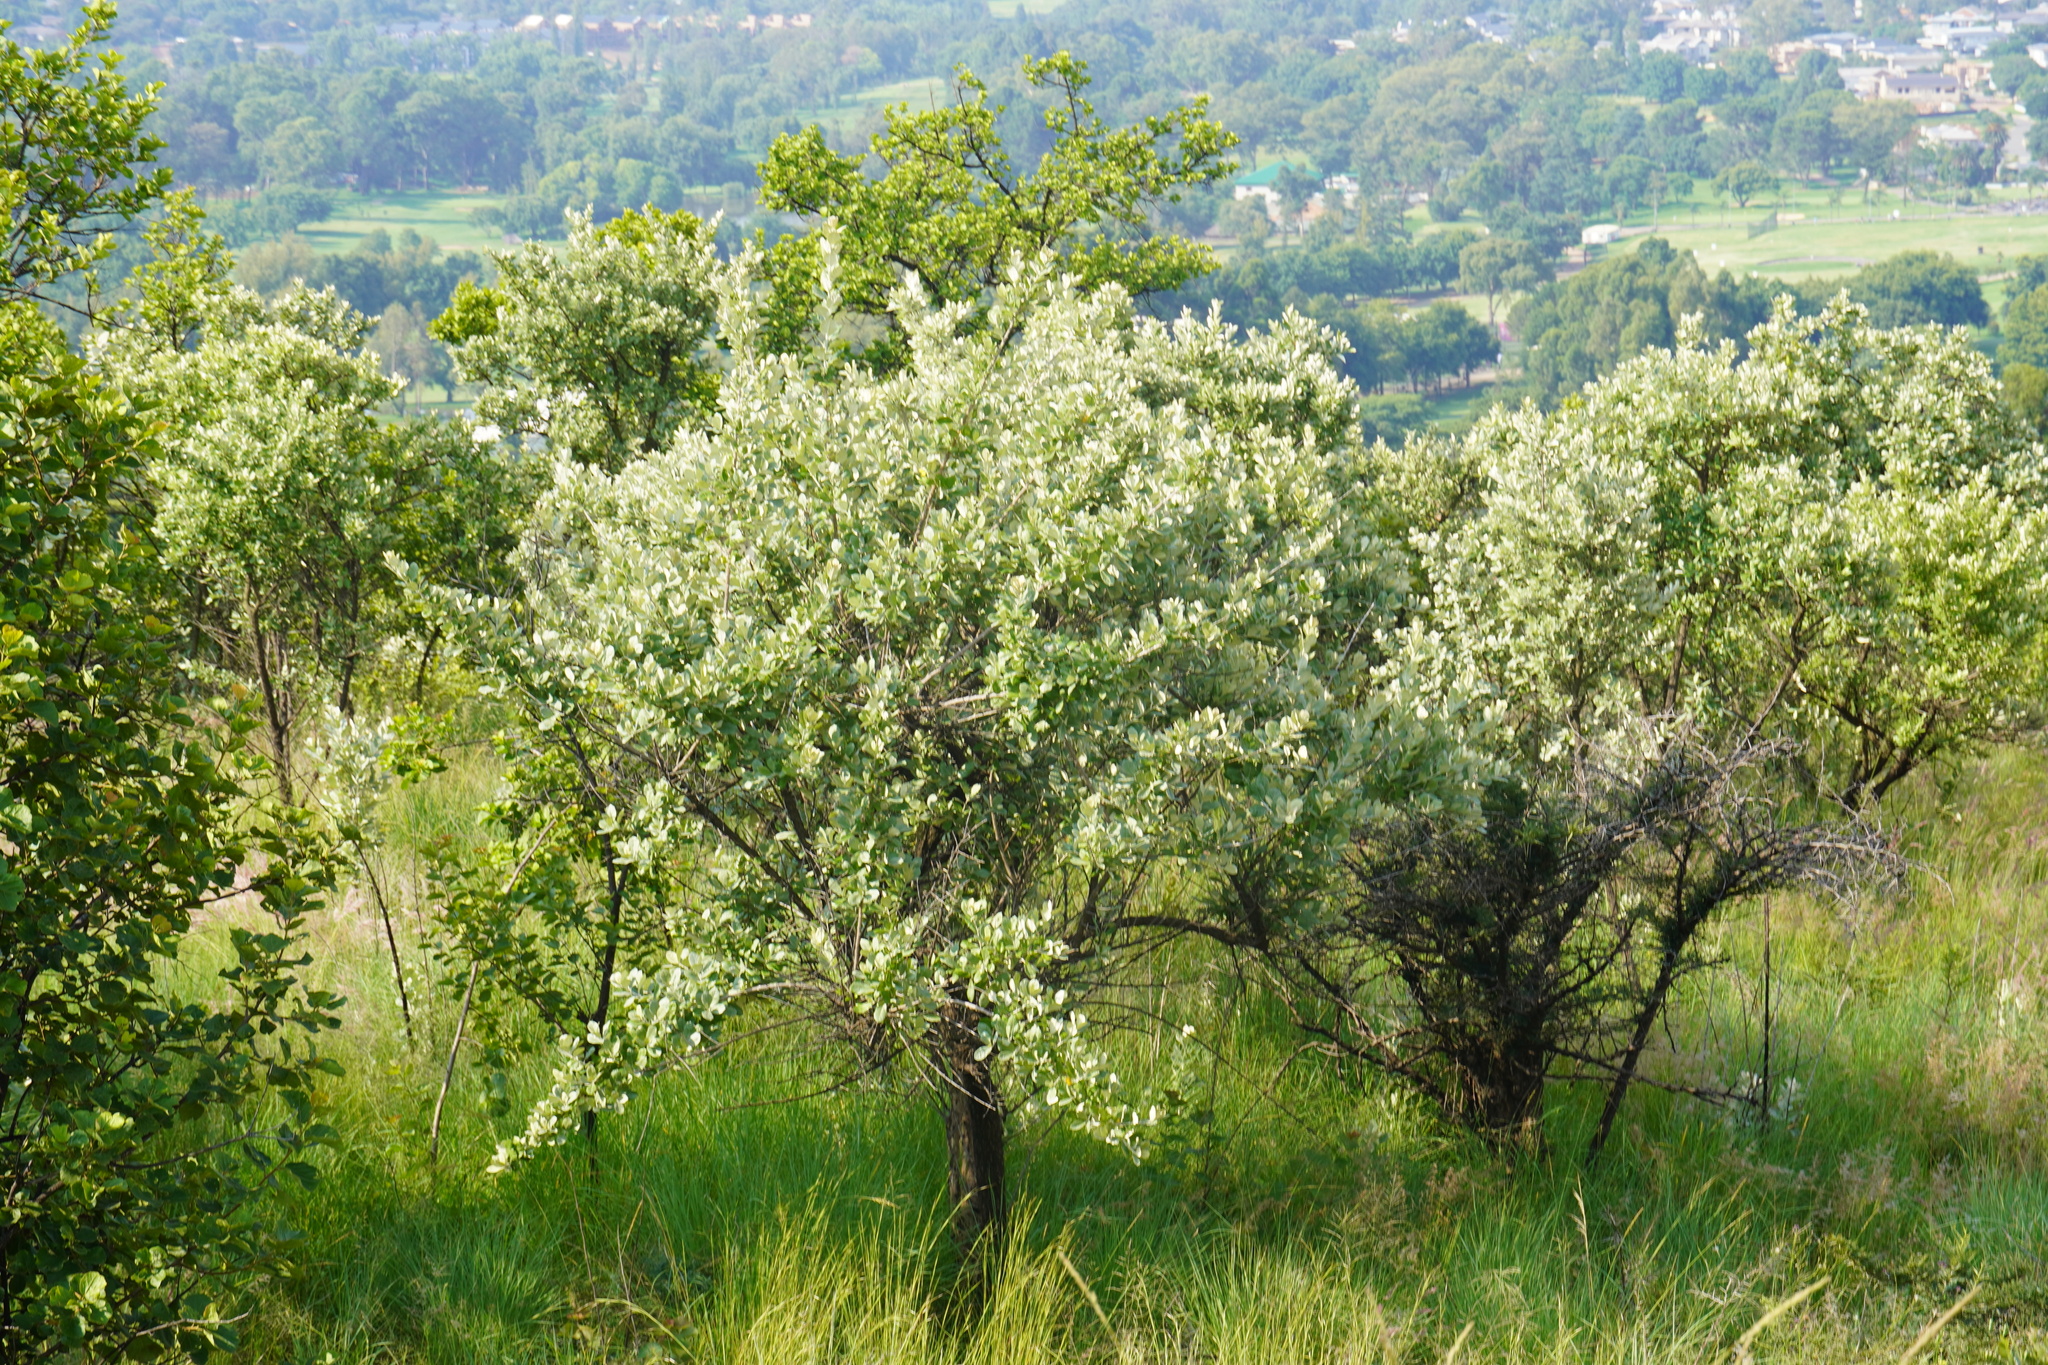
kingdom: Plantae
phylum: Tracheophyta
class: Magnoliopsida
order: Asterales
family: Asteraceae
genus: Brachylaena
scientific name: Brachylaena discolor
